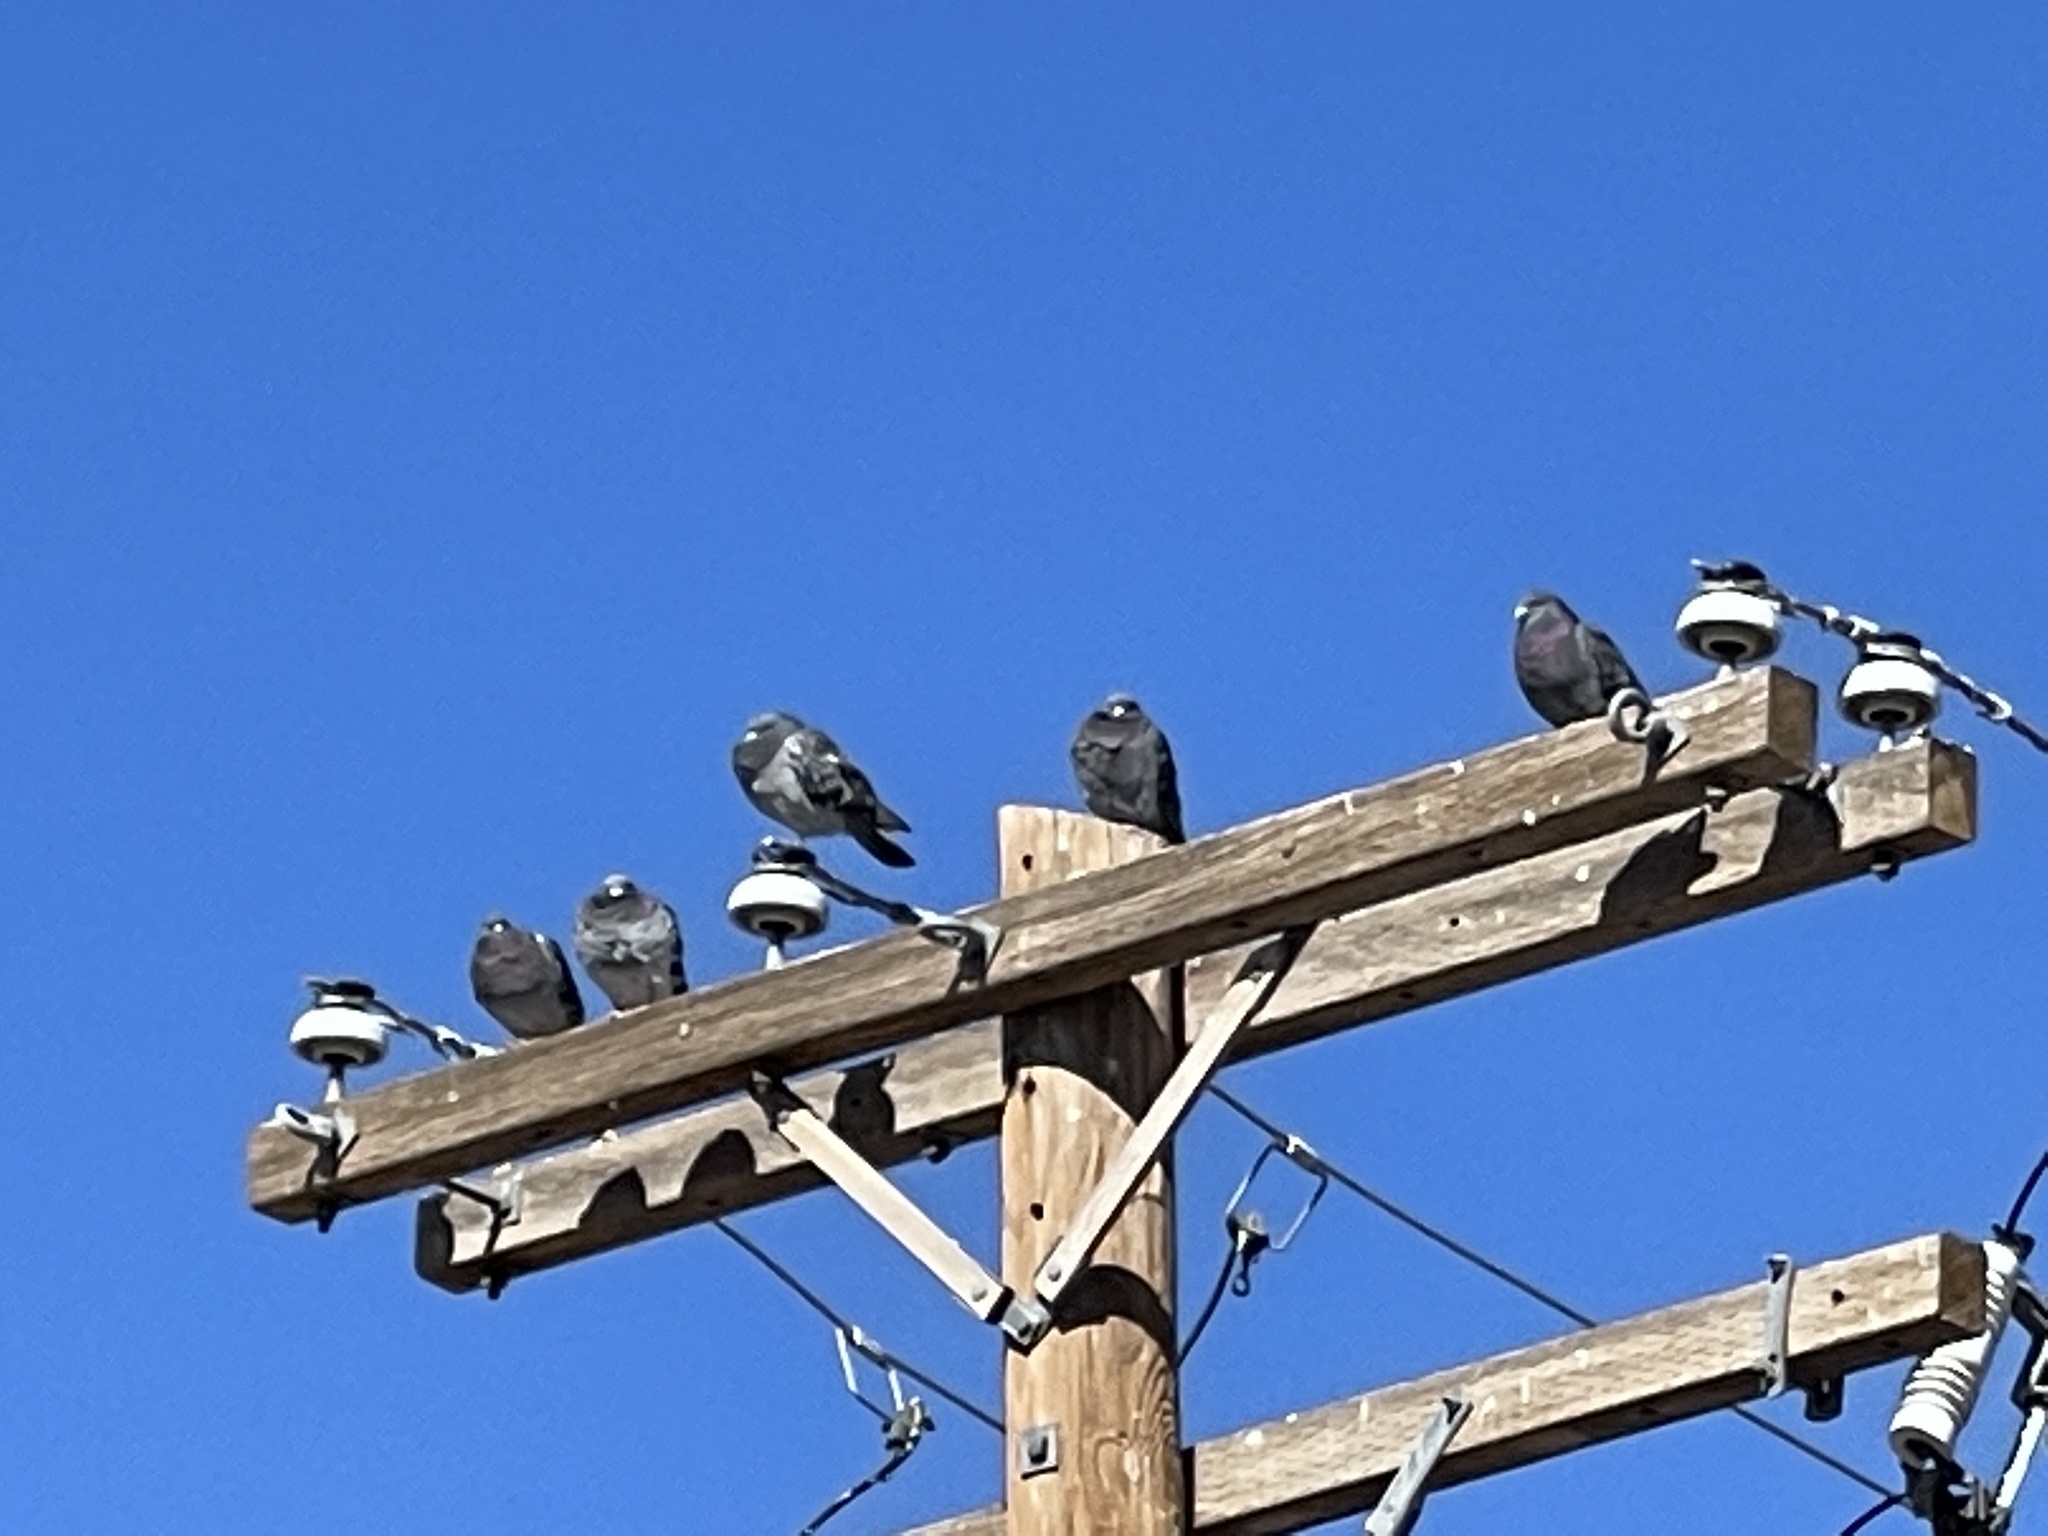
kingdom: Animalia
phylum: Chordata
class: Aves
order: Columbiformes
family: Columbidae
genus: Columba
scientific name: Columba livia
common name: Rock pigeon
